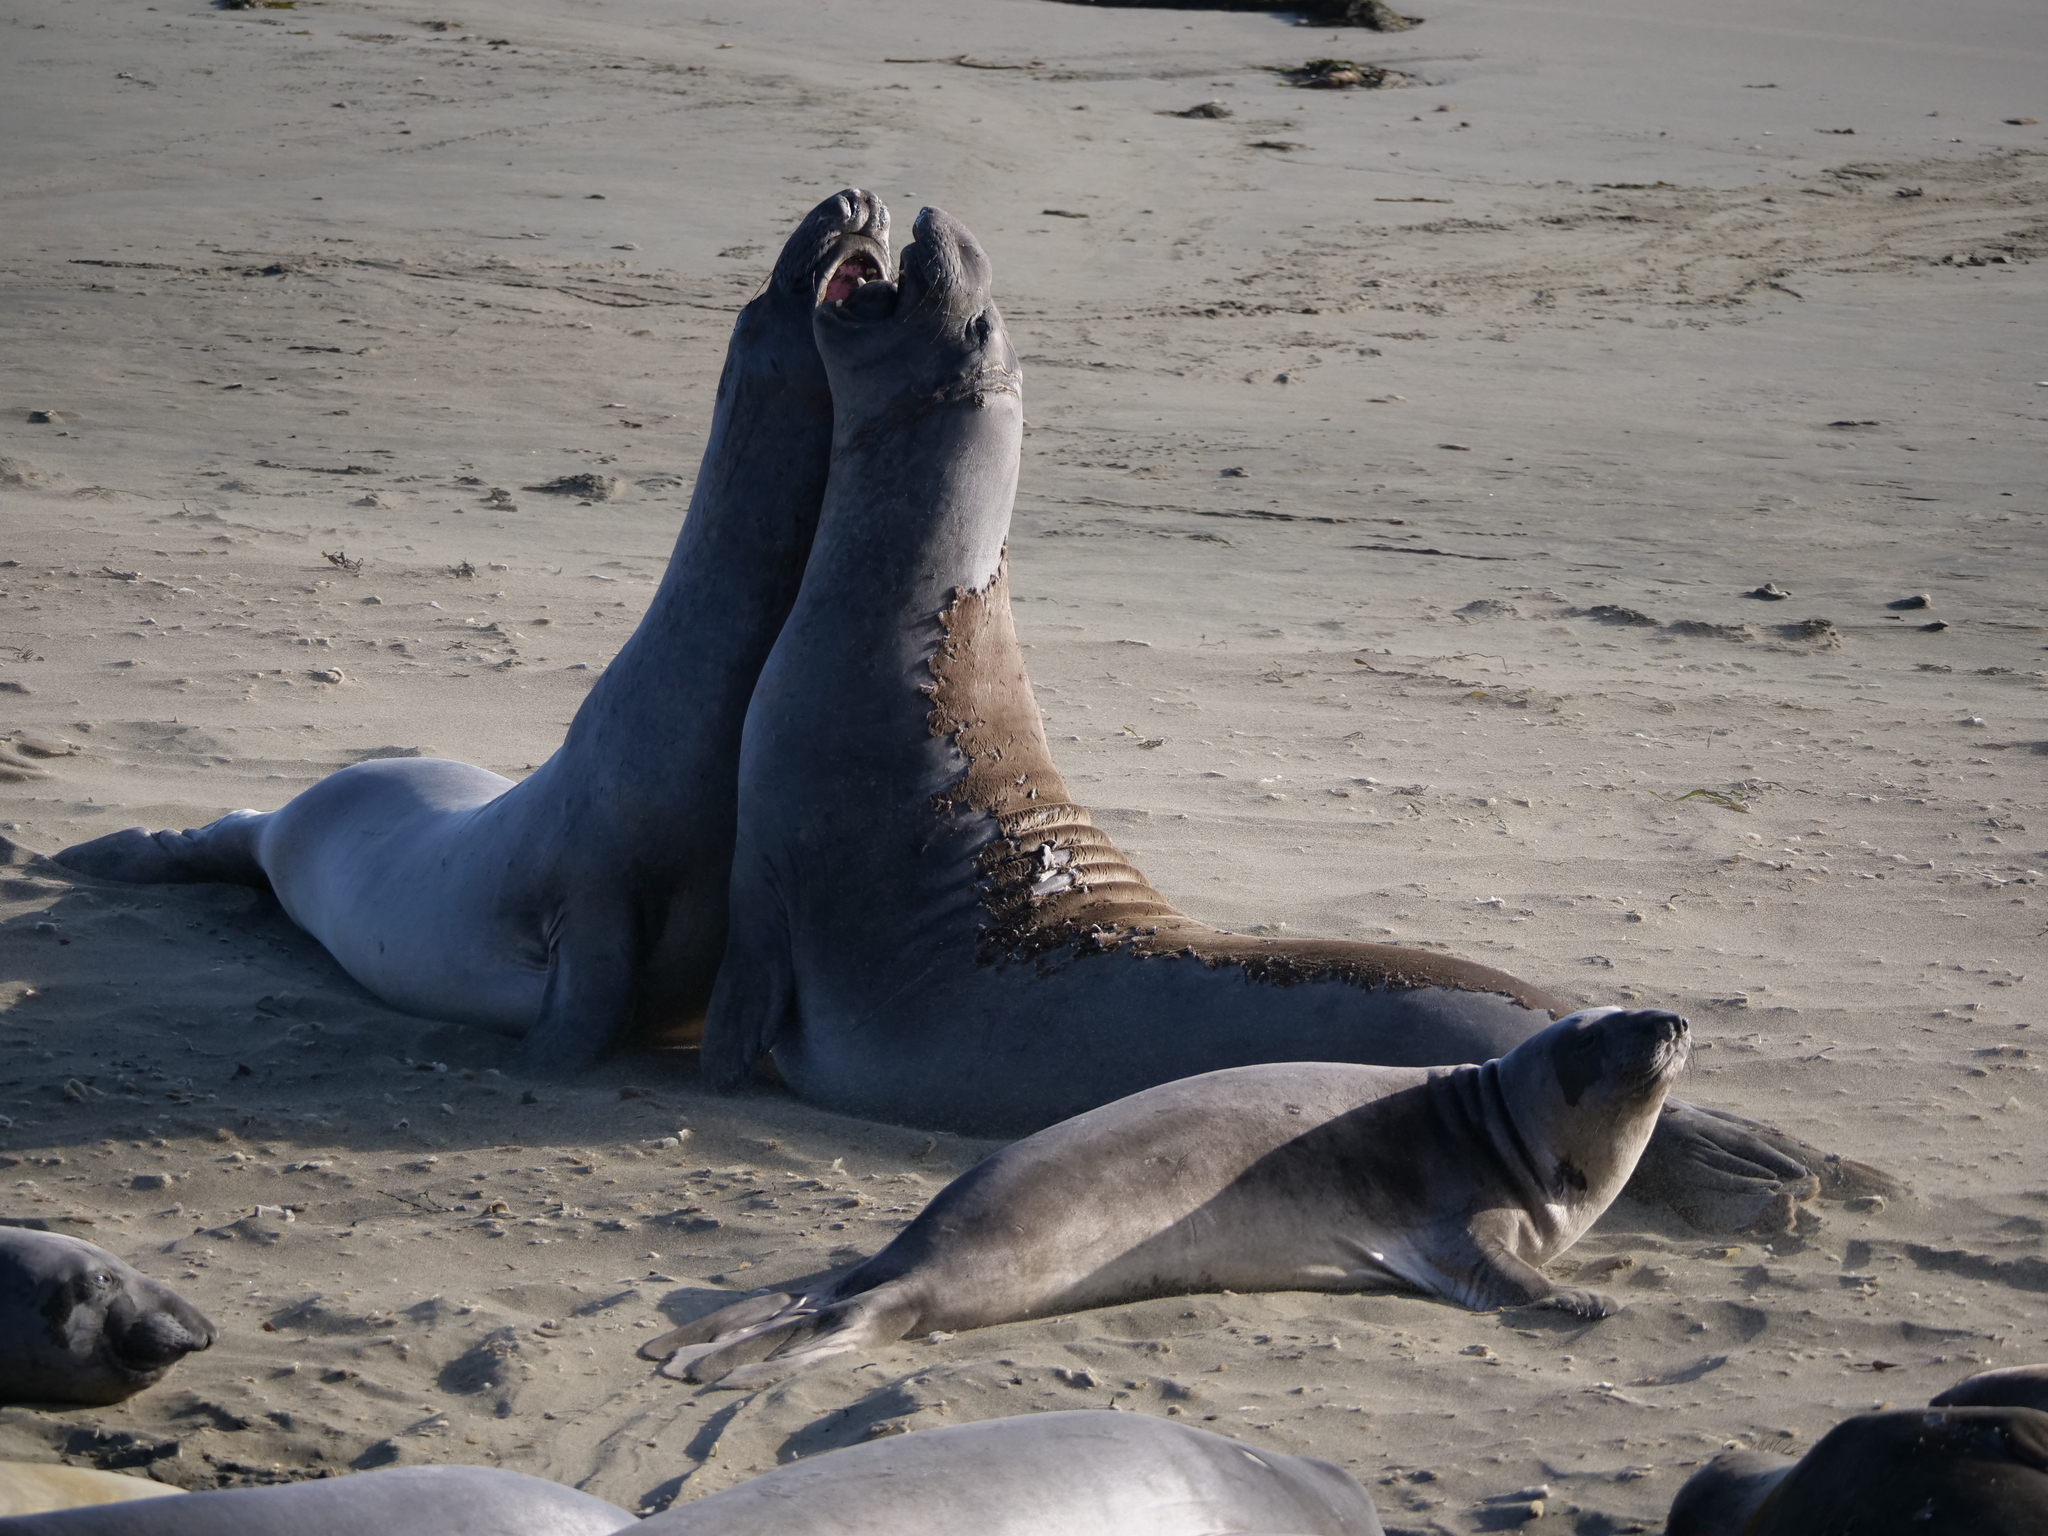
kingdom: Animalia
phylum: Chordata
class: Mammalia
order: Carnivora
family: Phocidae
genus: Mirounga
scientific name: Mirounga angustirostris
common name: Northern elephant seal
